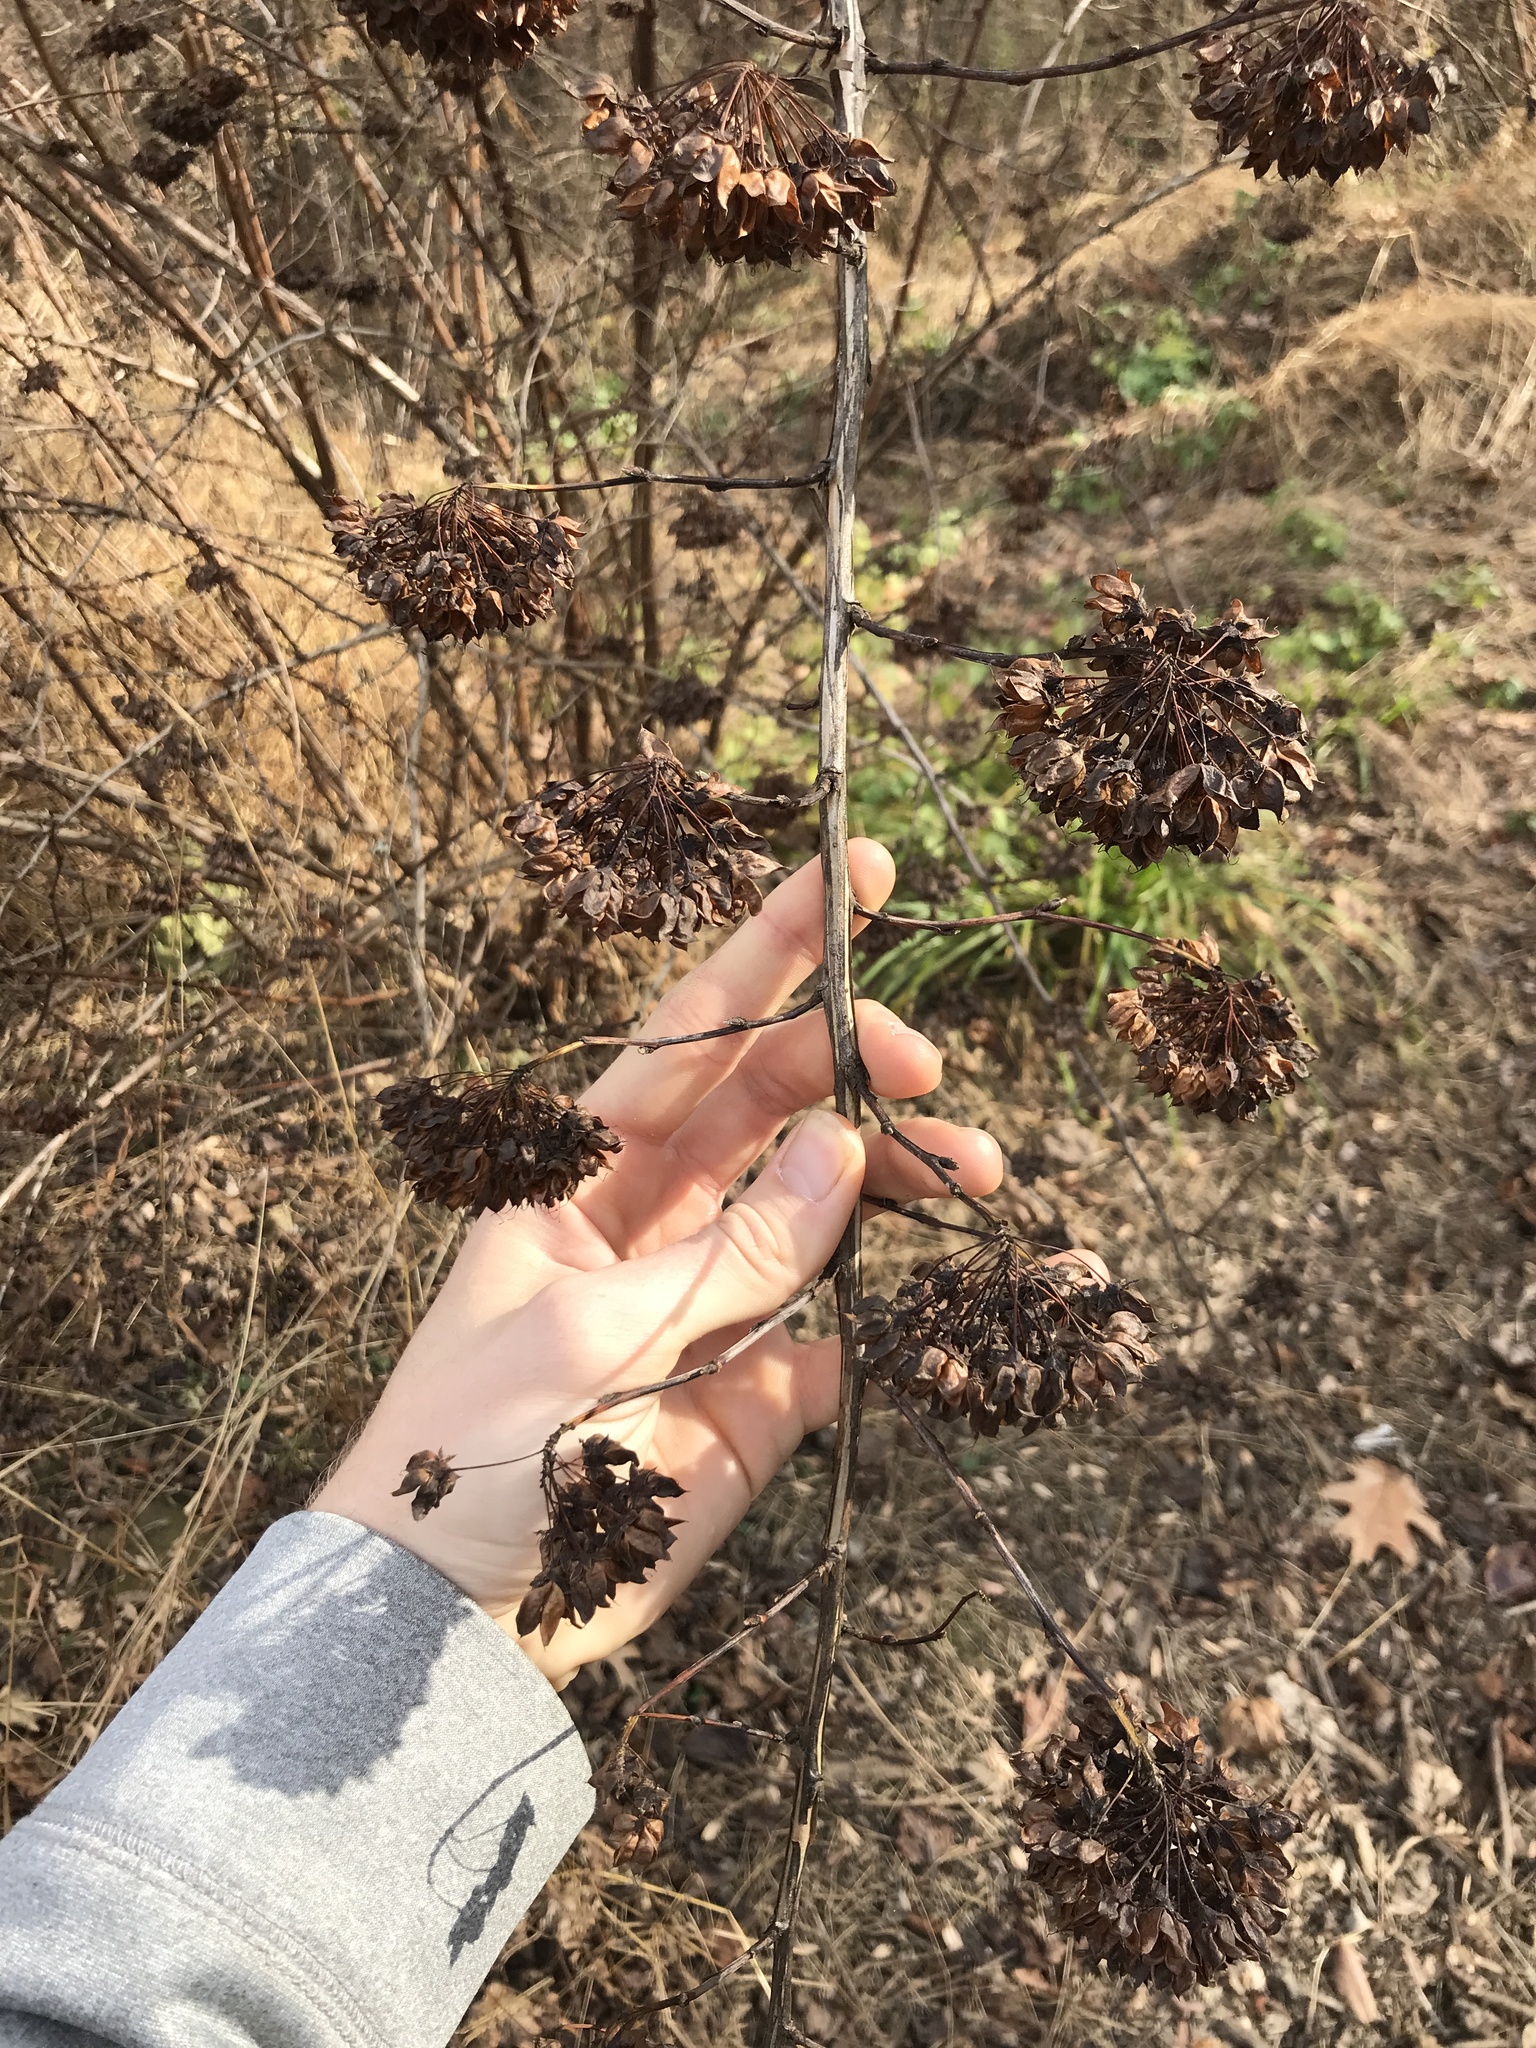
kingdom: Plantae
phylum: Tracheophyta
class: Magnoliopsida
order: Rosales
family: Rosaceae
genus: Physocarpus
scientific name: Physocarpus opulifolius
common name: Ninebark
